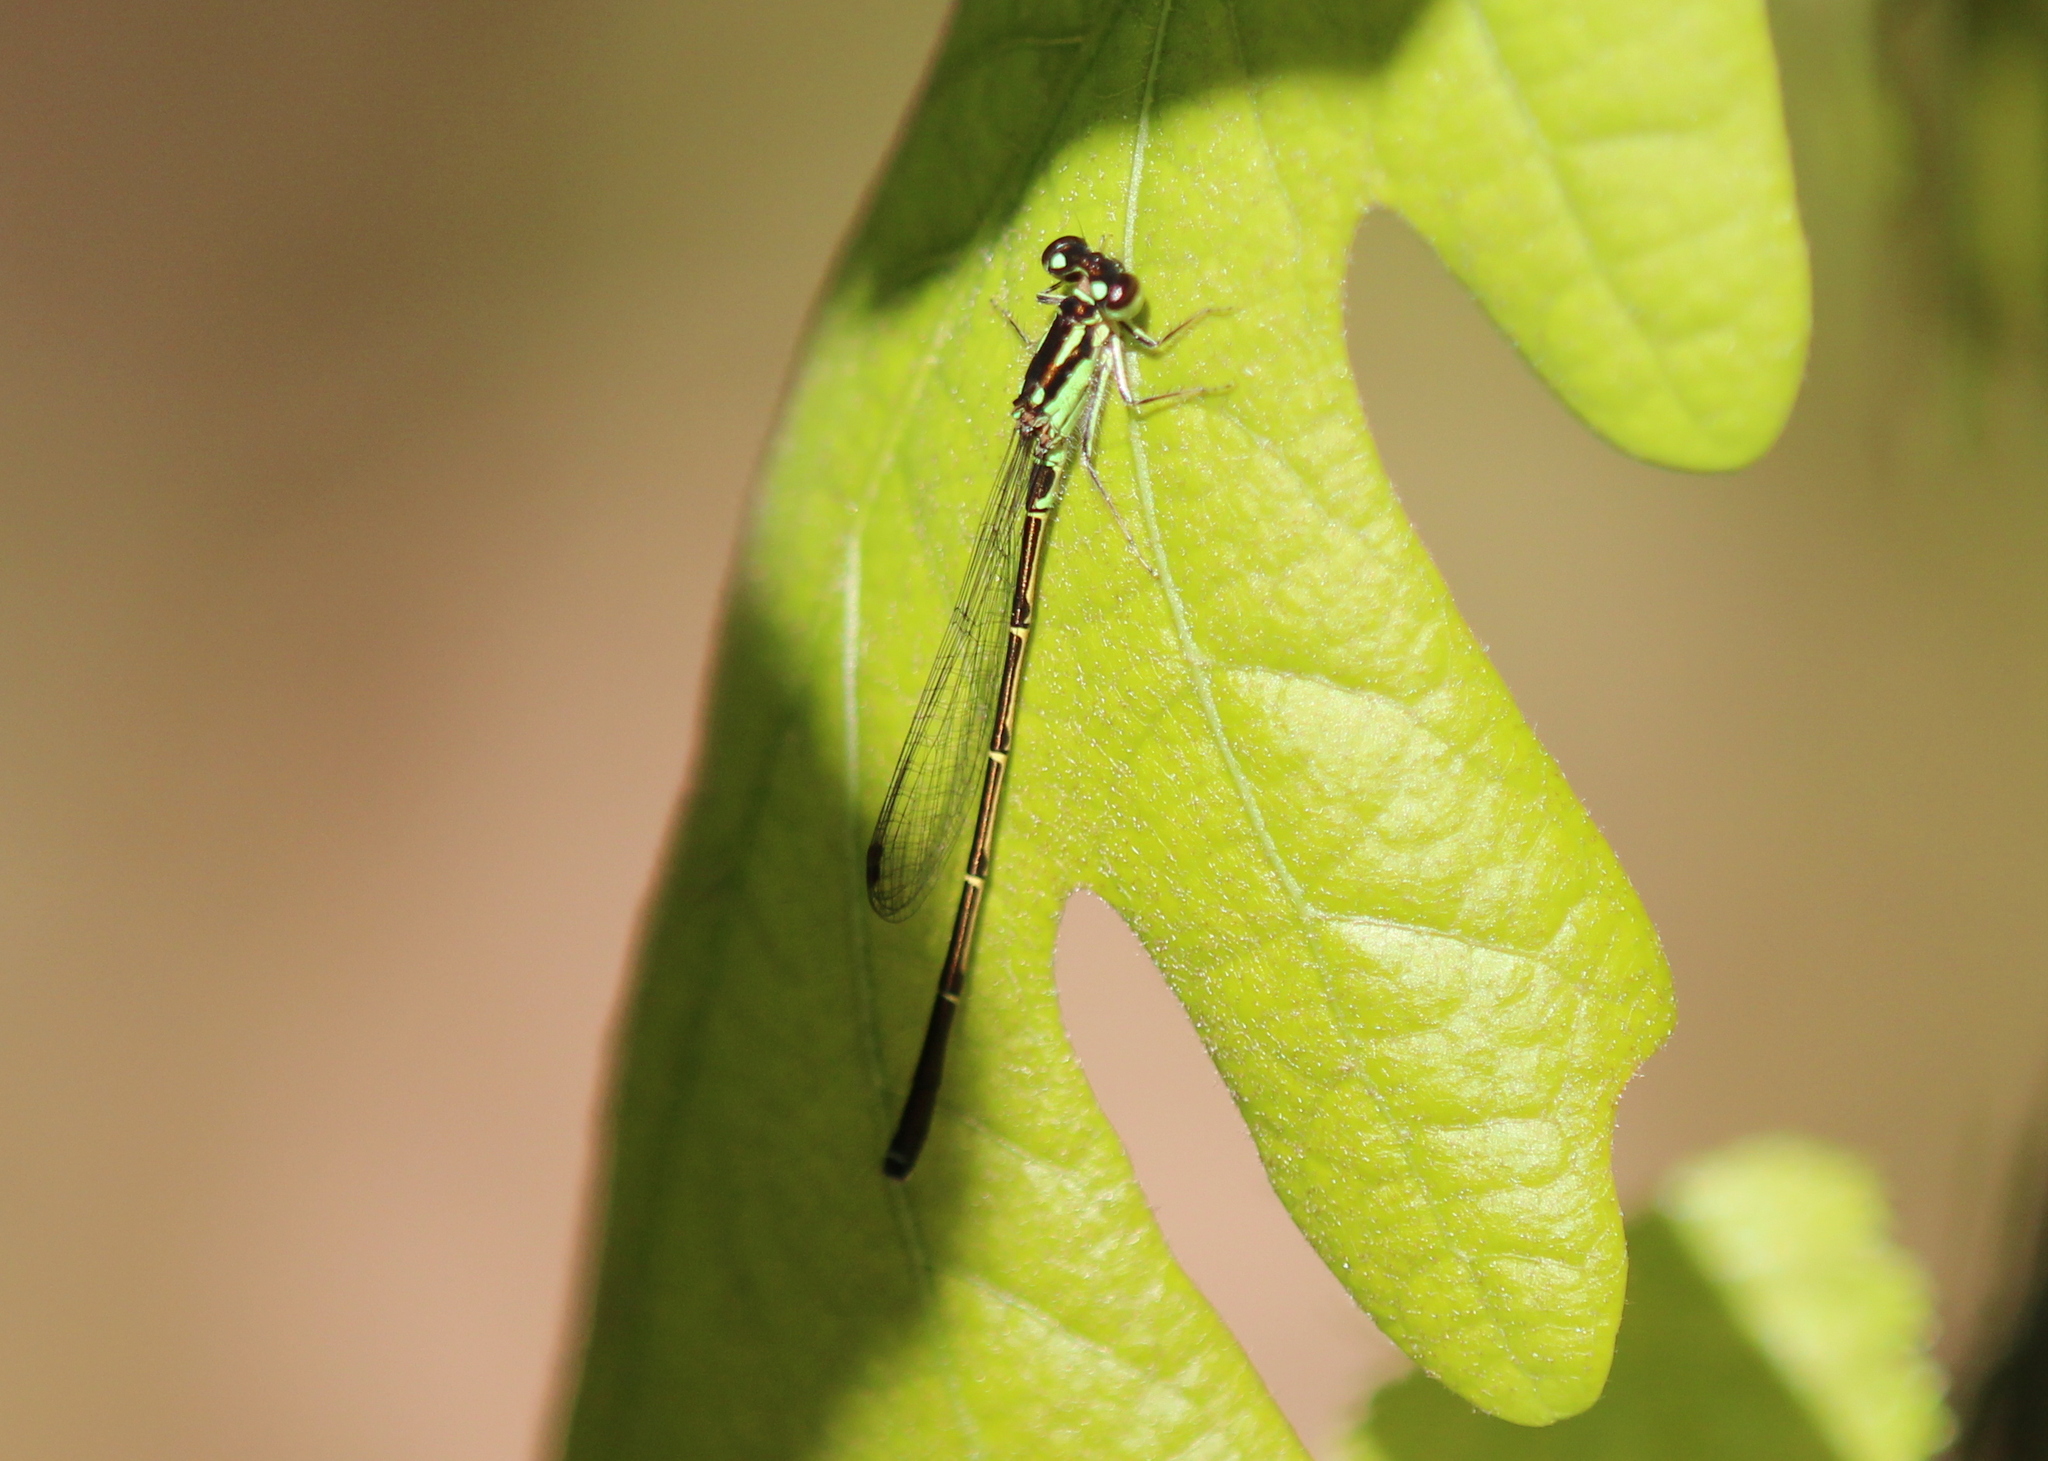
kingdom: Animalia
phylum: Arthropoda
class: Insecta
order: Odonata
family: Coenagrionidae
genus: Ischnura
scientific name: Ischnura posita
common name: Fragile forktail
